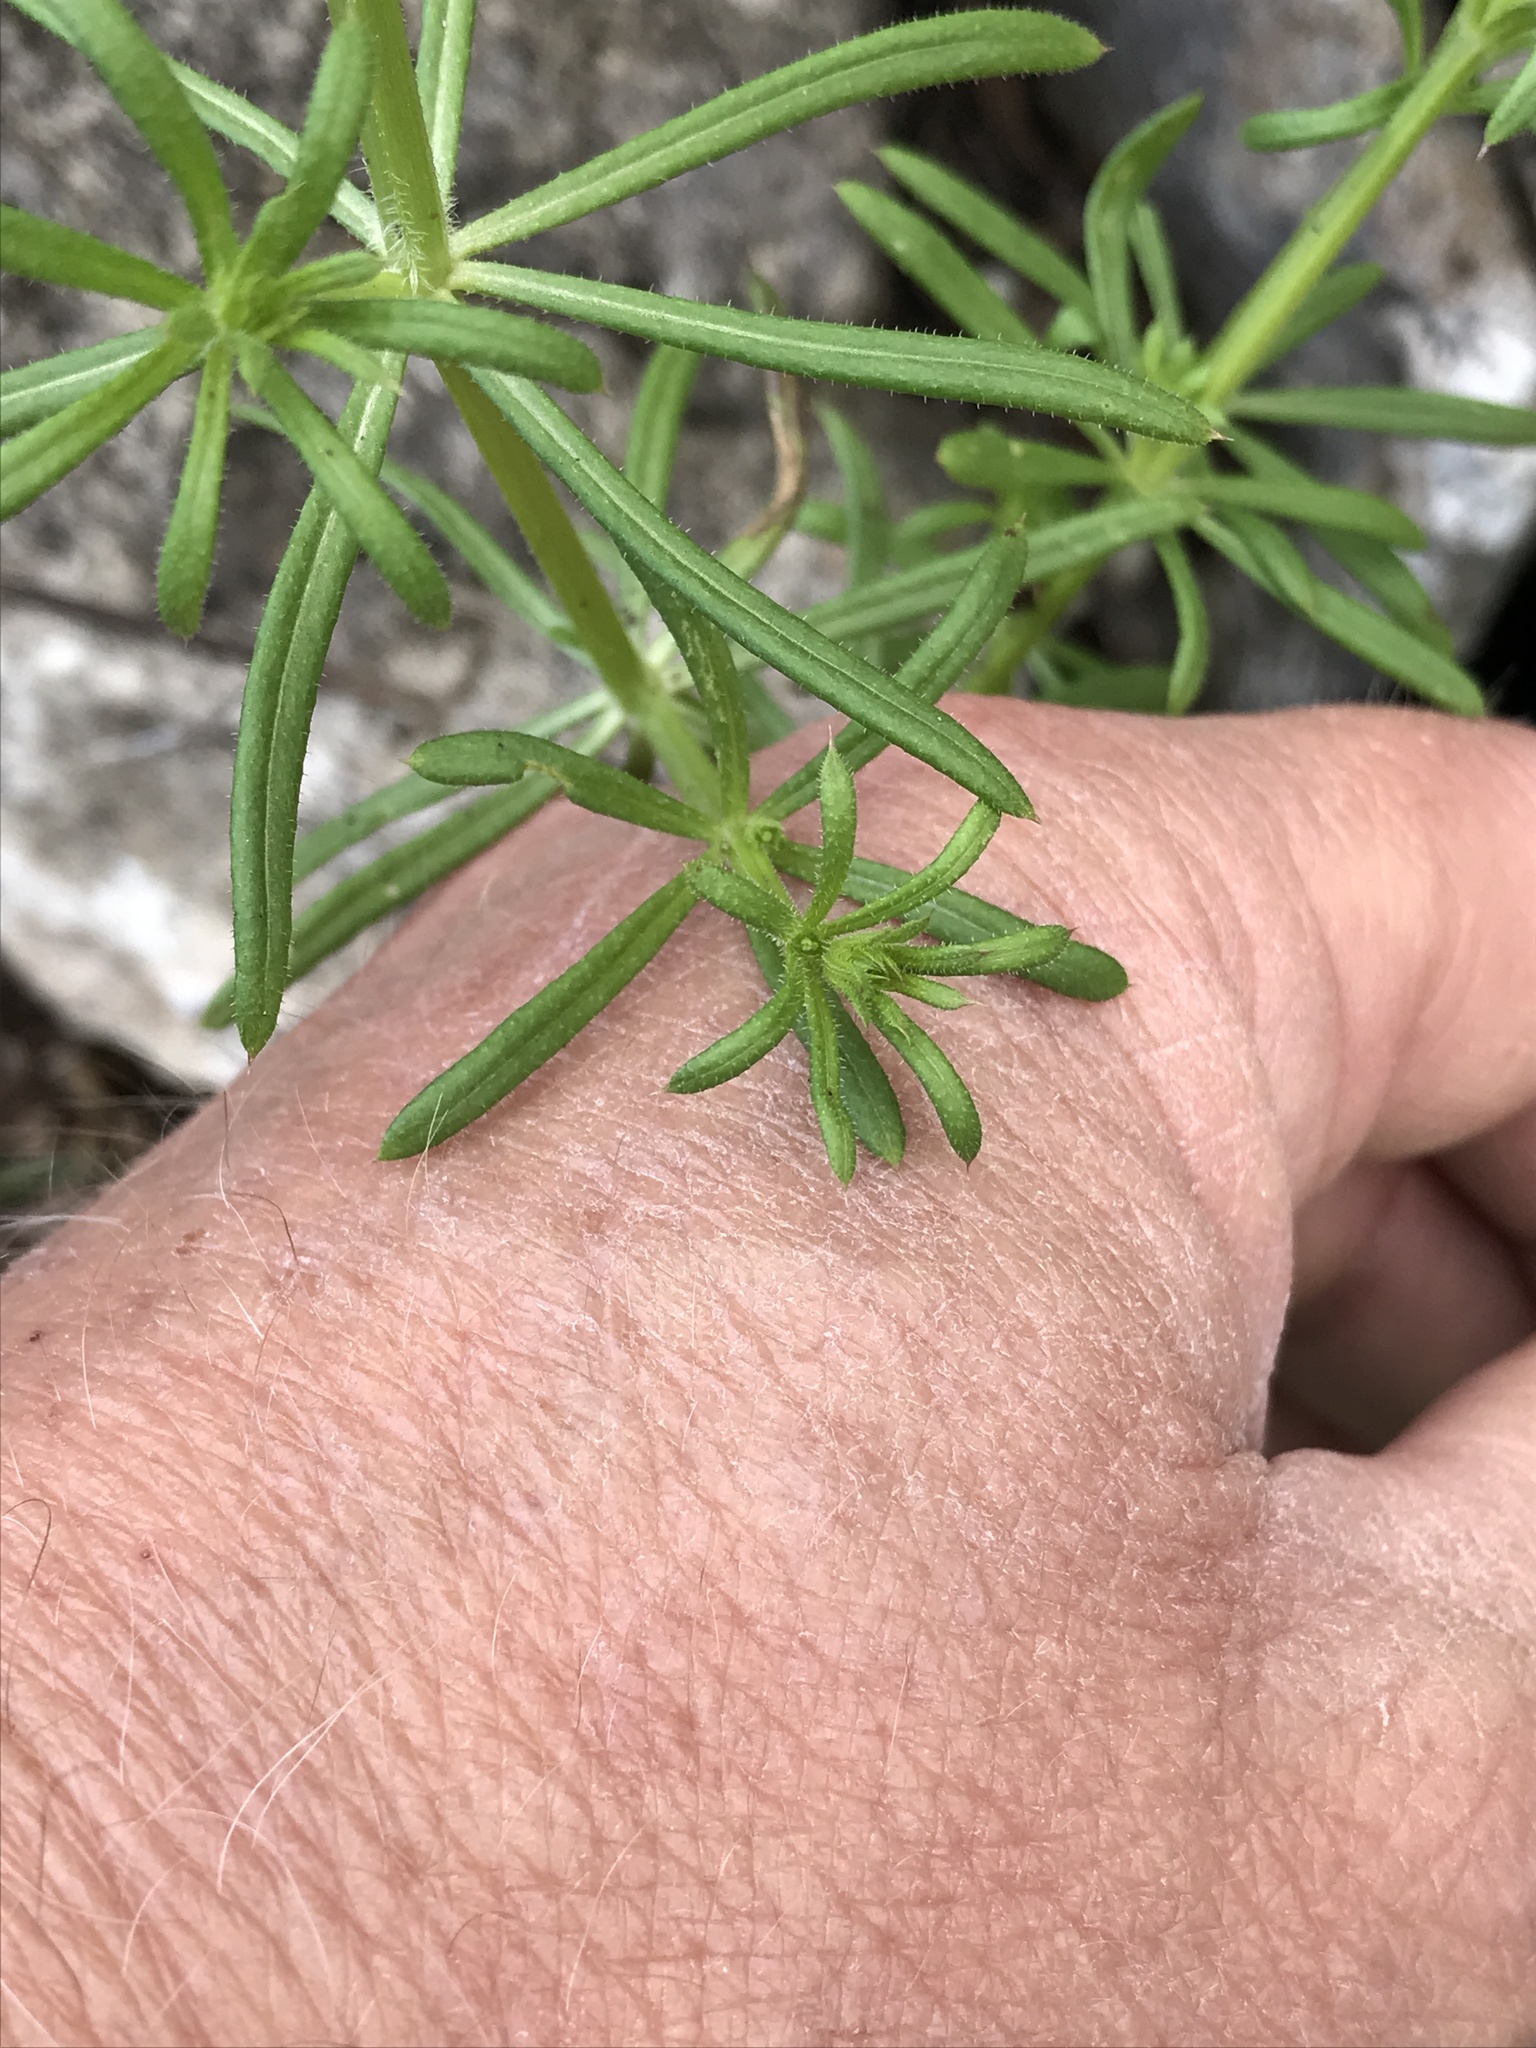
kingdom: Plantae
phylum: Tracheophyta
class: Magnoliopsida
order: Gentianales
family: Rubiaceae
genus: Galium
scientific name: Galium aparine
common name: Cleavers
